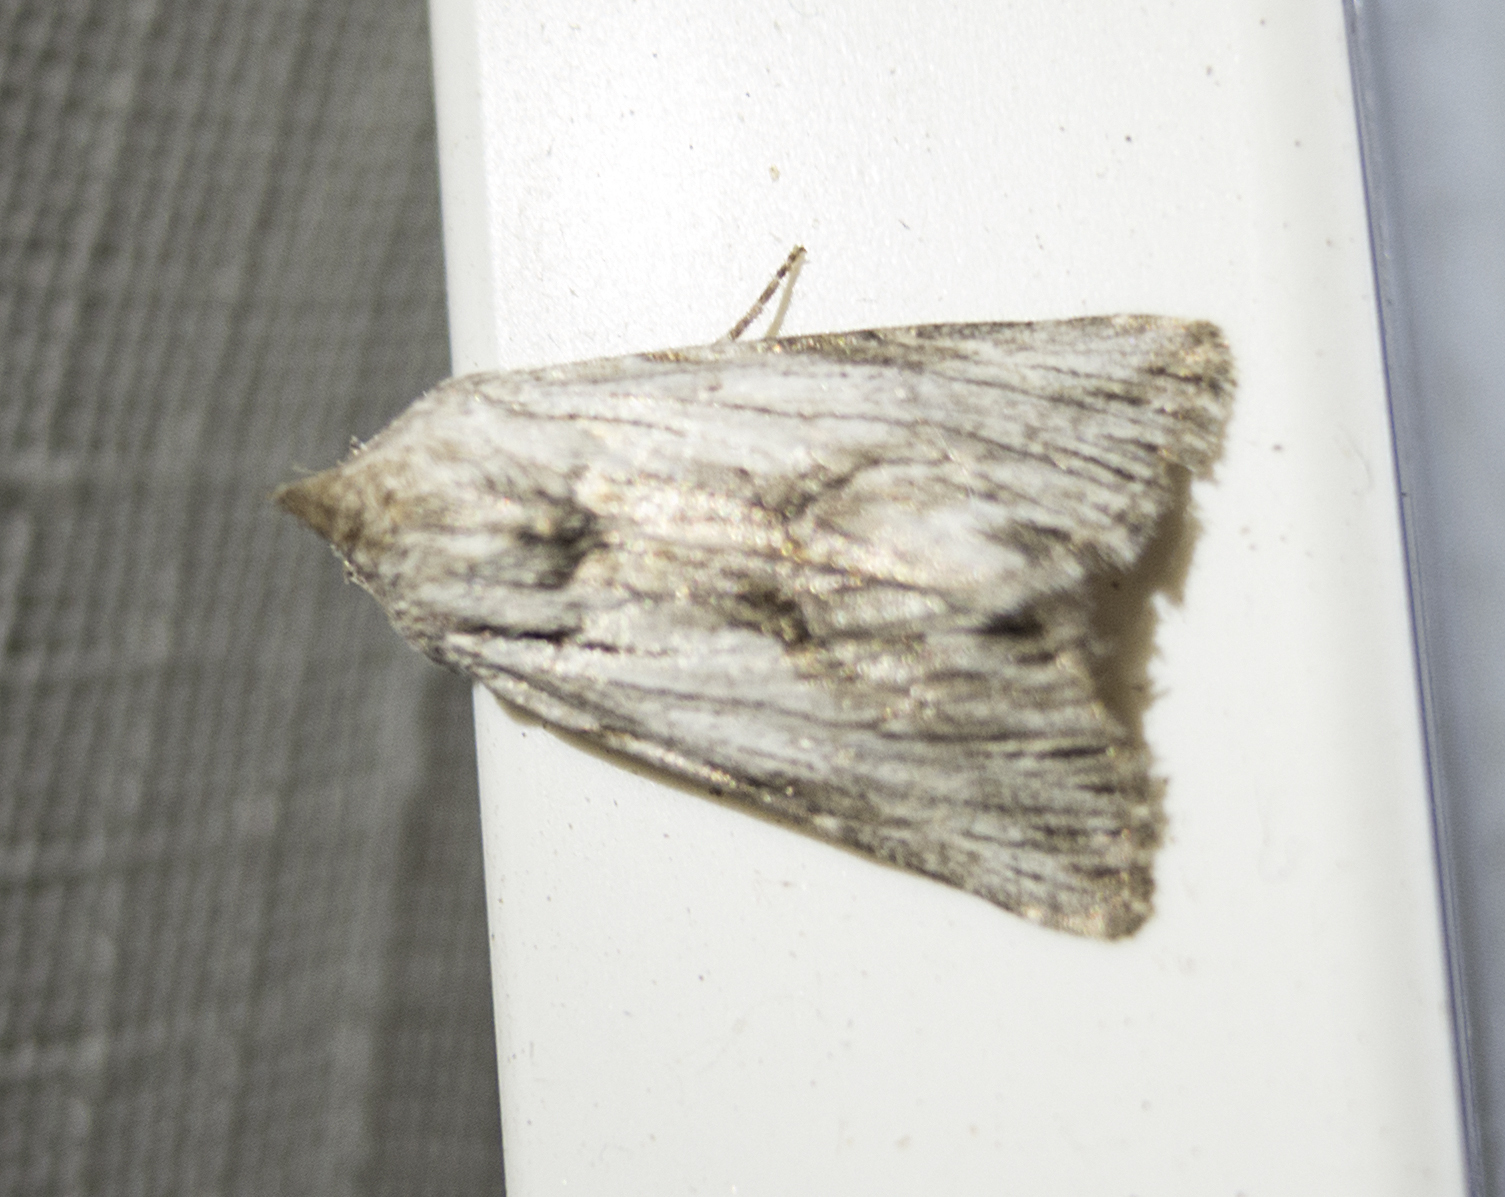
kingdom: Animalia
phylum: Arthropoda
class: Insecta
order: Lepidoptera
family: Noctuidae
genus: Calophasia
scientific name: Calophasia platyptera
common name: Antirrhinum brocade
